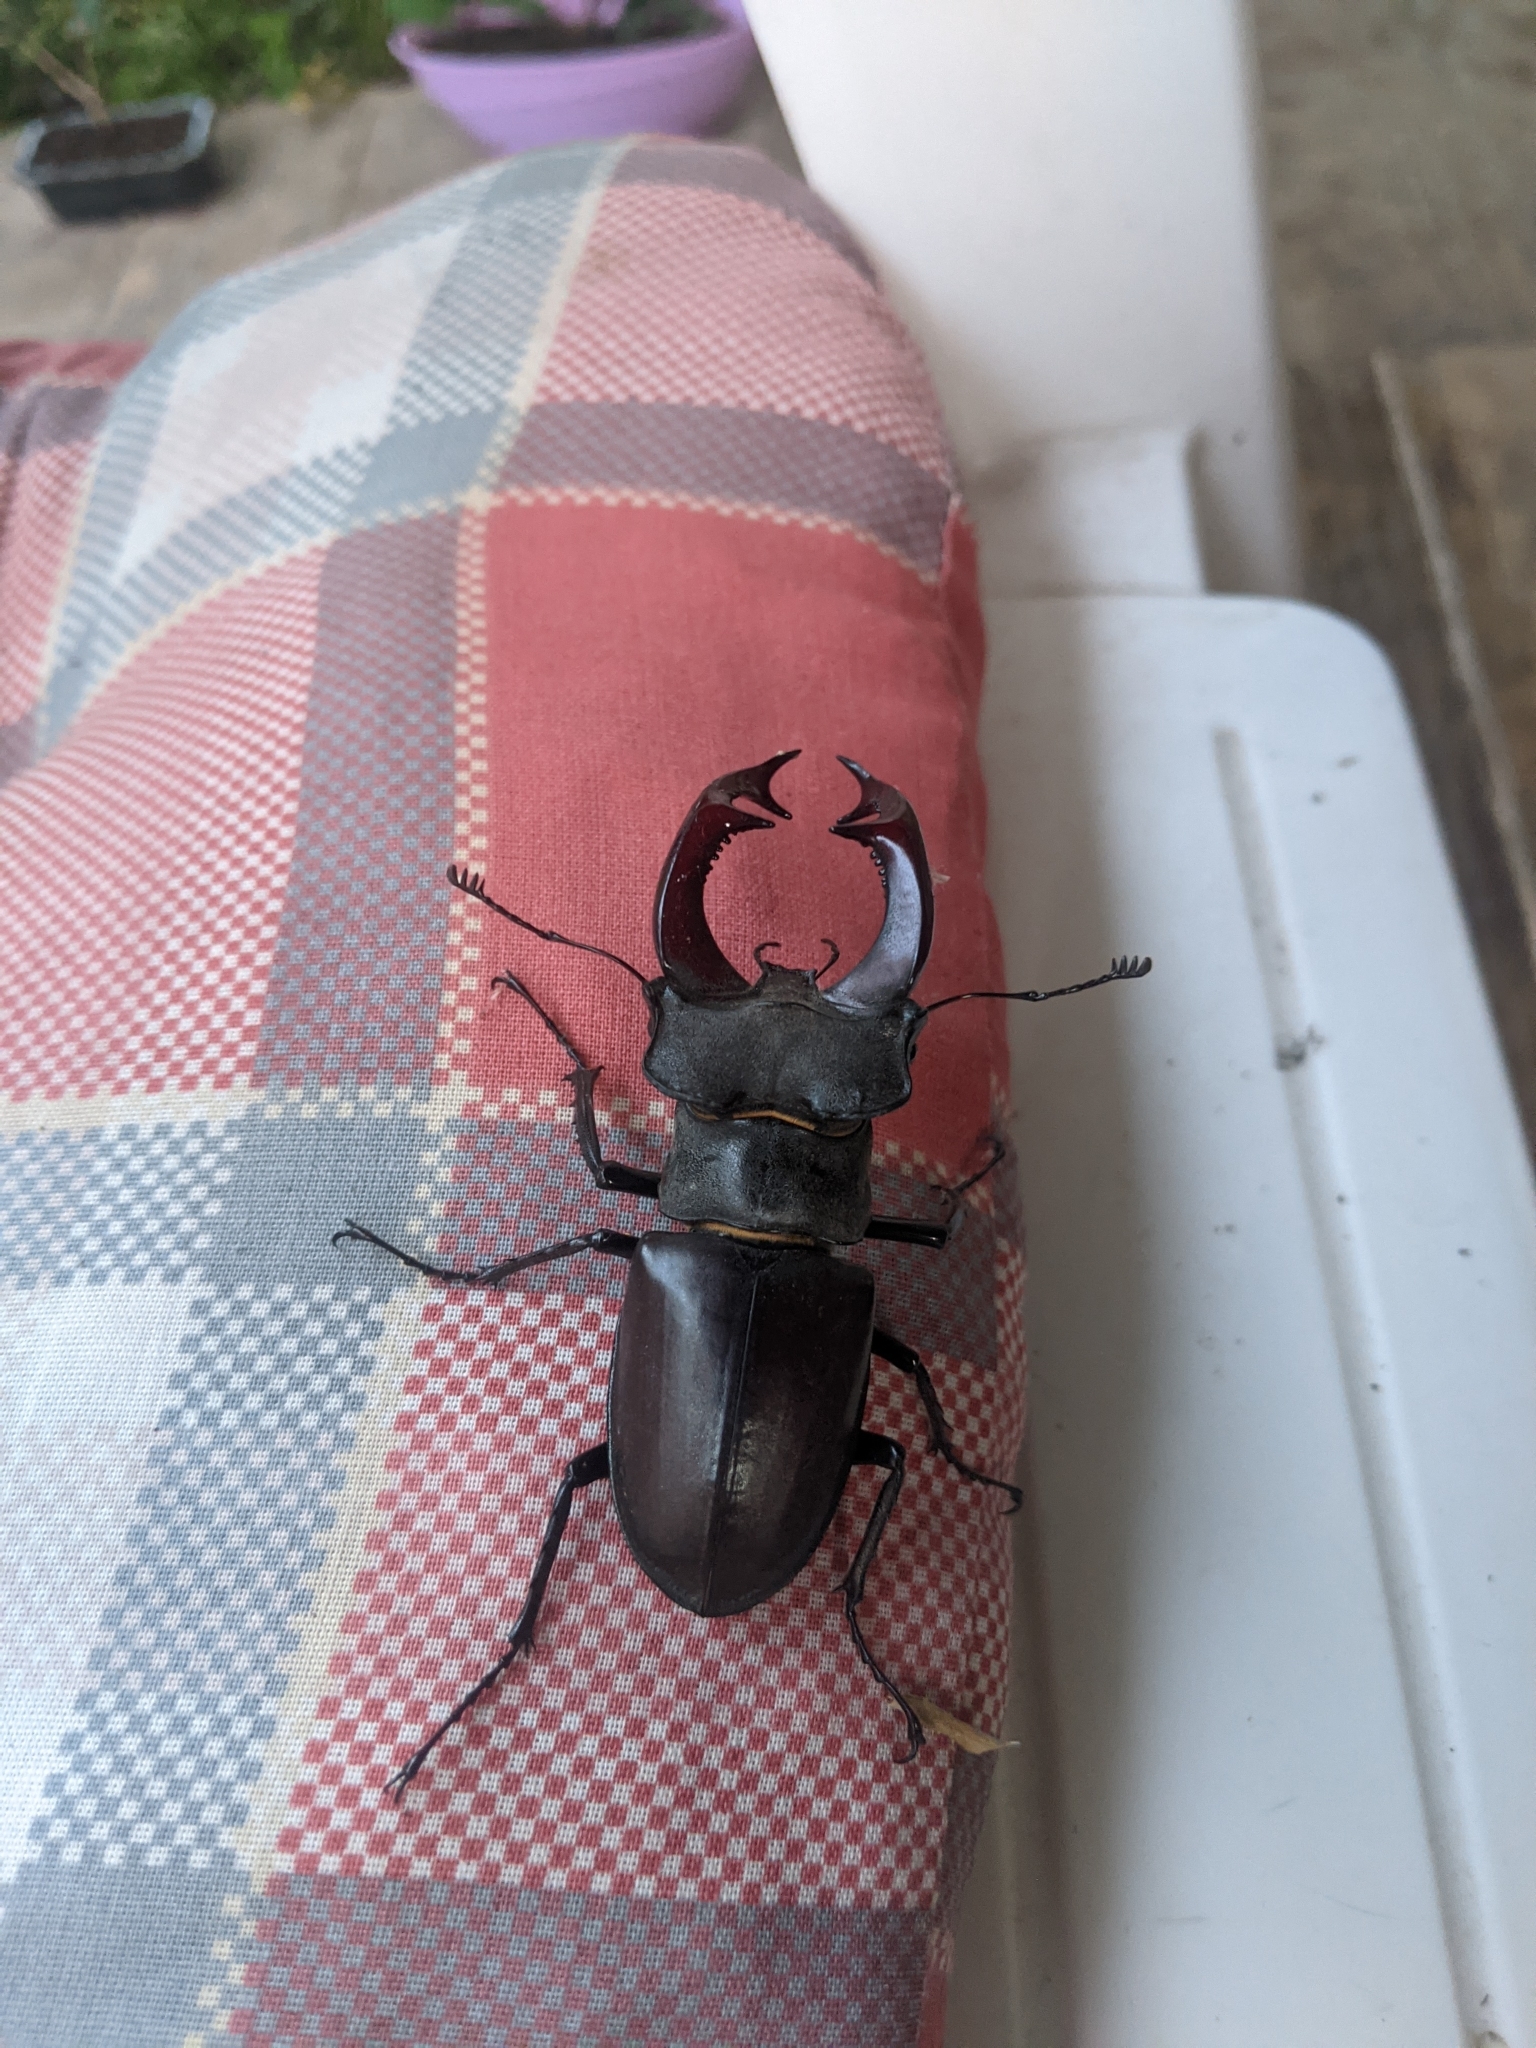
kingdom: Animalia
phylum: Arthropoda
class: Insecta
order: Coleoptera
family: Lucanidae
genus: Lucanus
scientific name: Lucanus cervus
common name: Stag beetle
